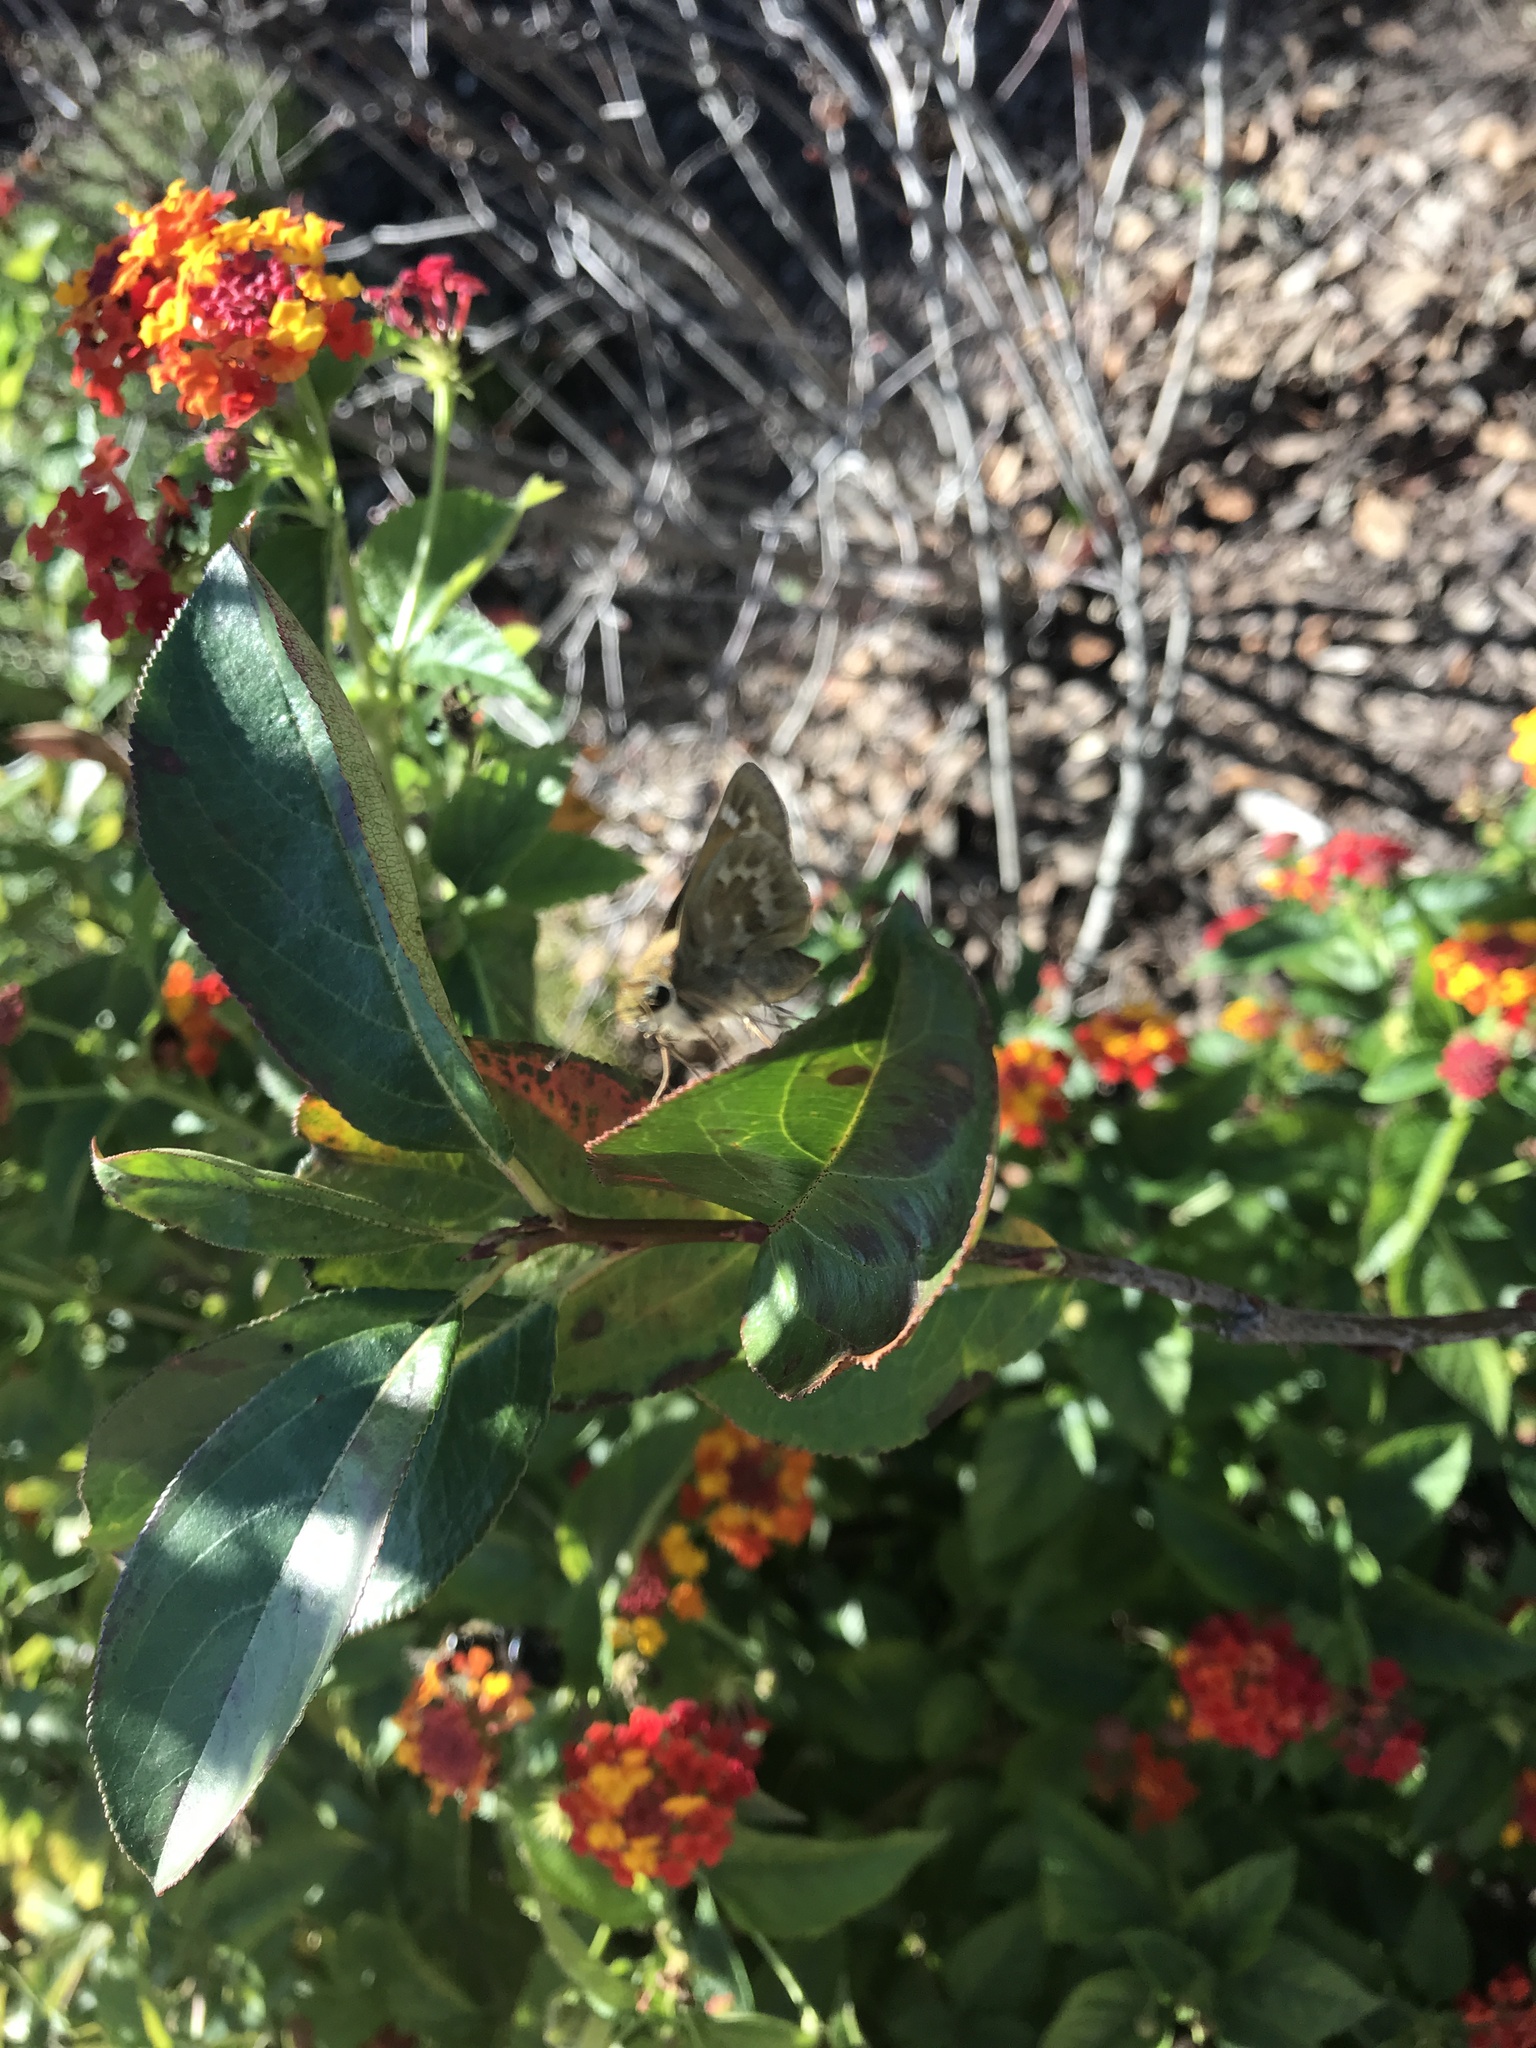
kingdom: Animalia
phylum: Arthropoda
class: Insecta
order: Lepidoptera
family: Hesperiidae
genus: Atalopedes
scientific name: Atalopedes
